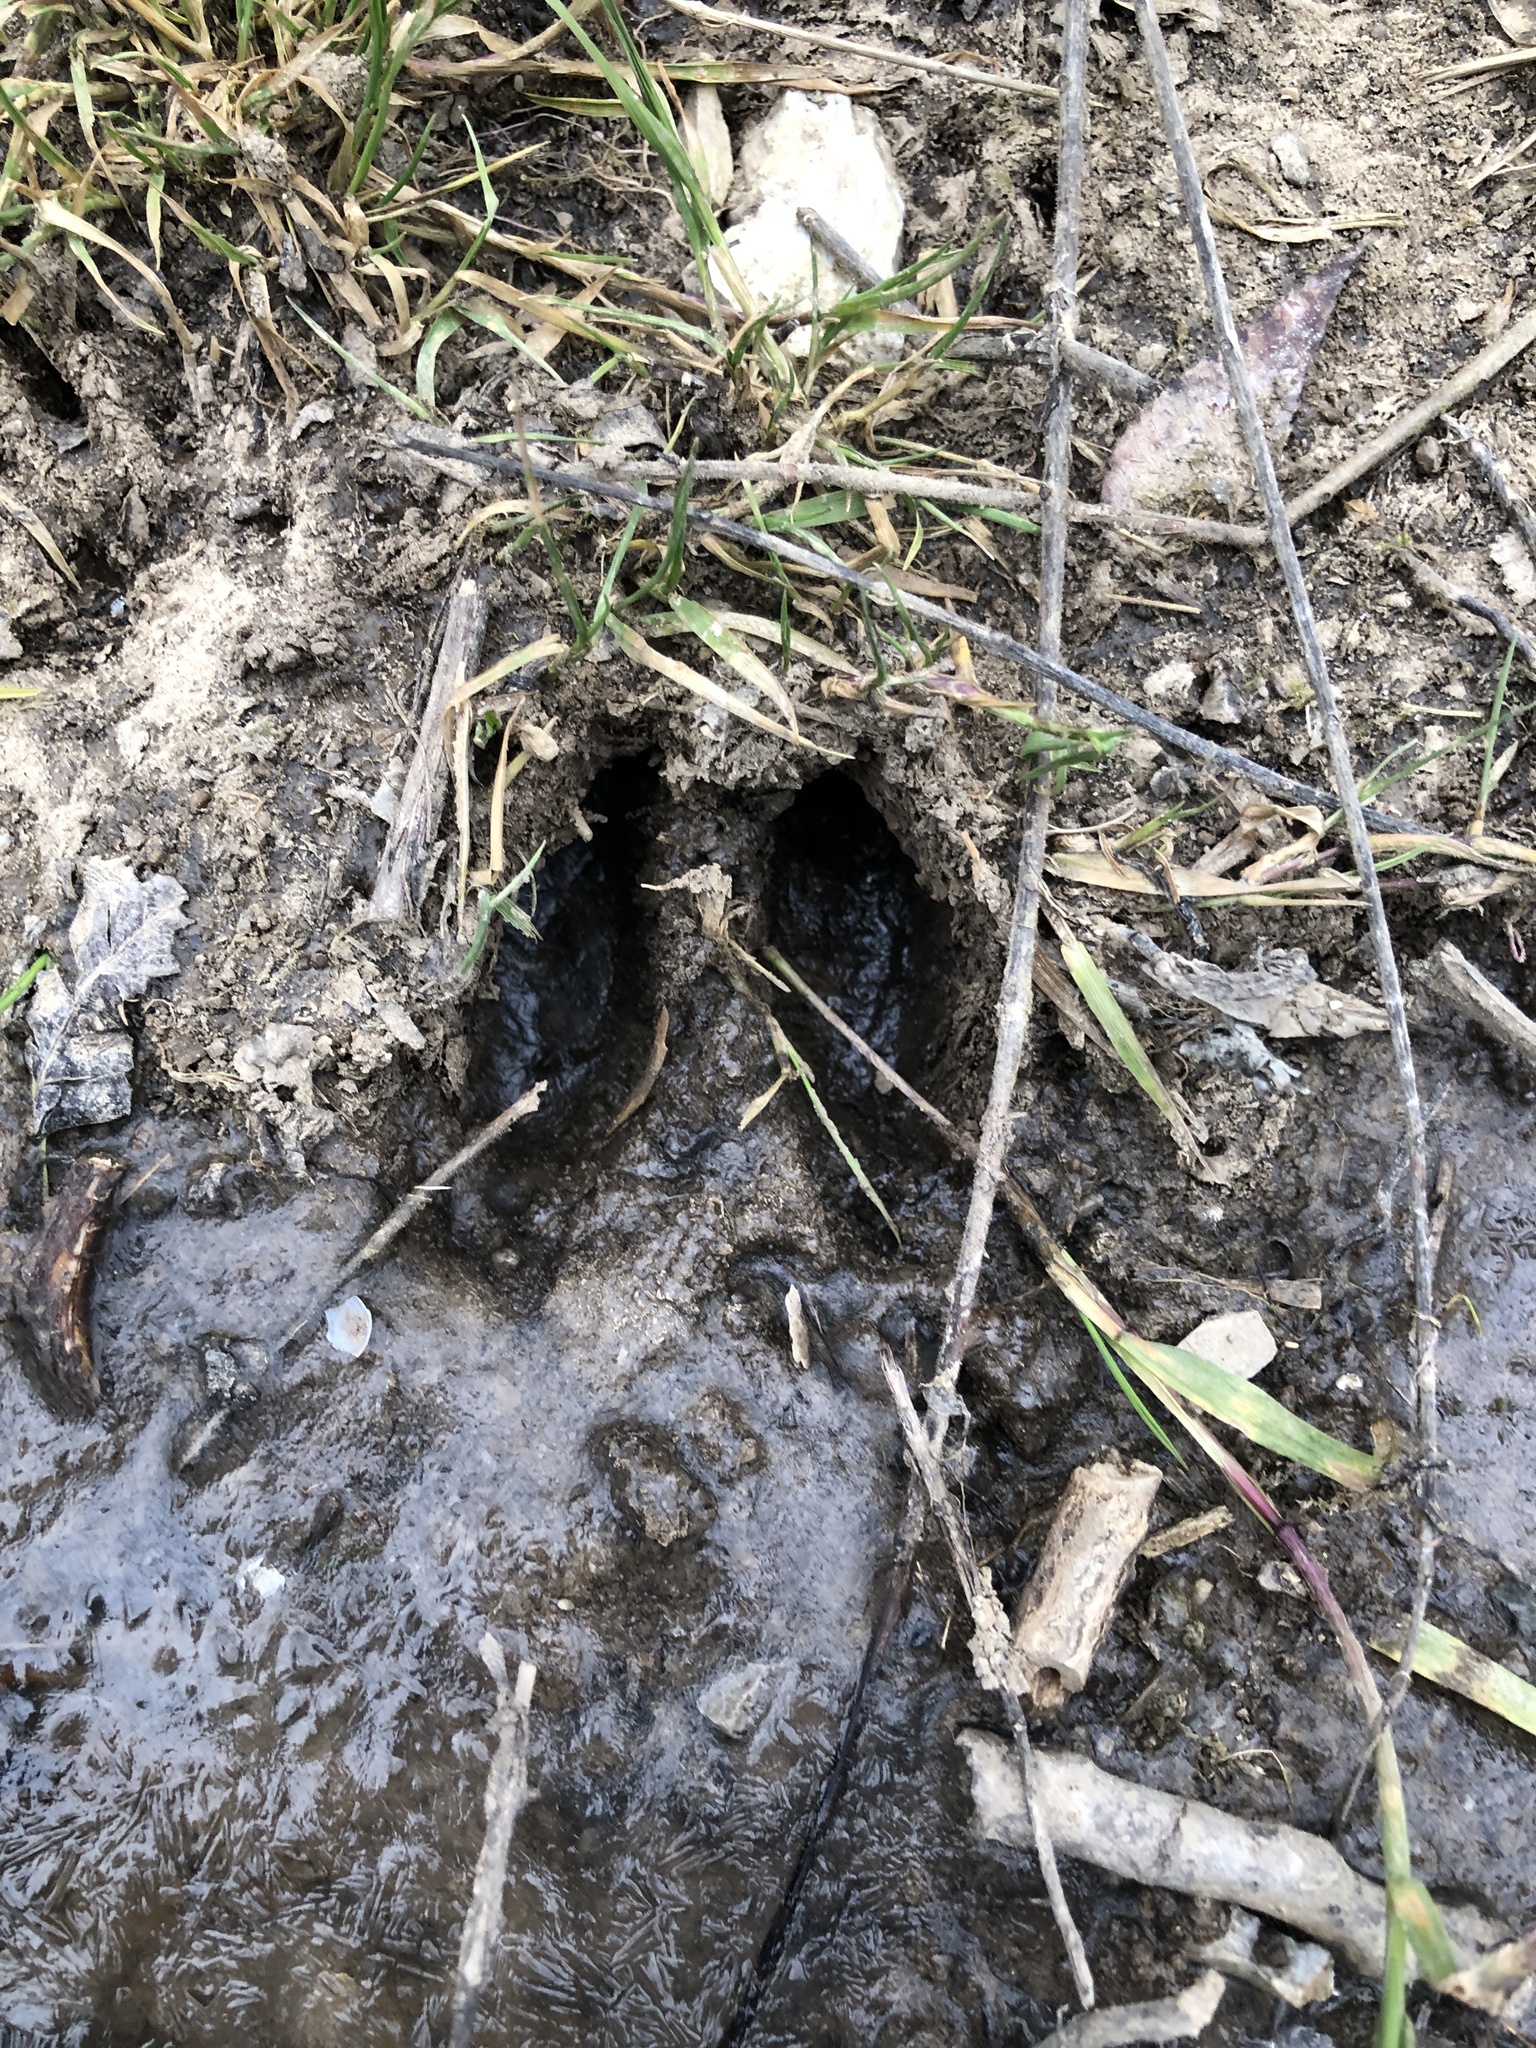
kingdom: Animalia
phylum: Chordata
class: Mammalia
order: Artiodactyla
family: Cervidae
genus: Odocoileus
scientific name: Odocoileus virginianus
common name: White-tailed deer
